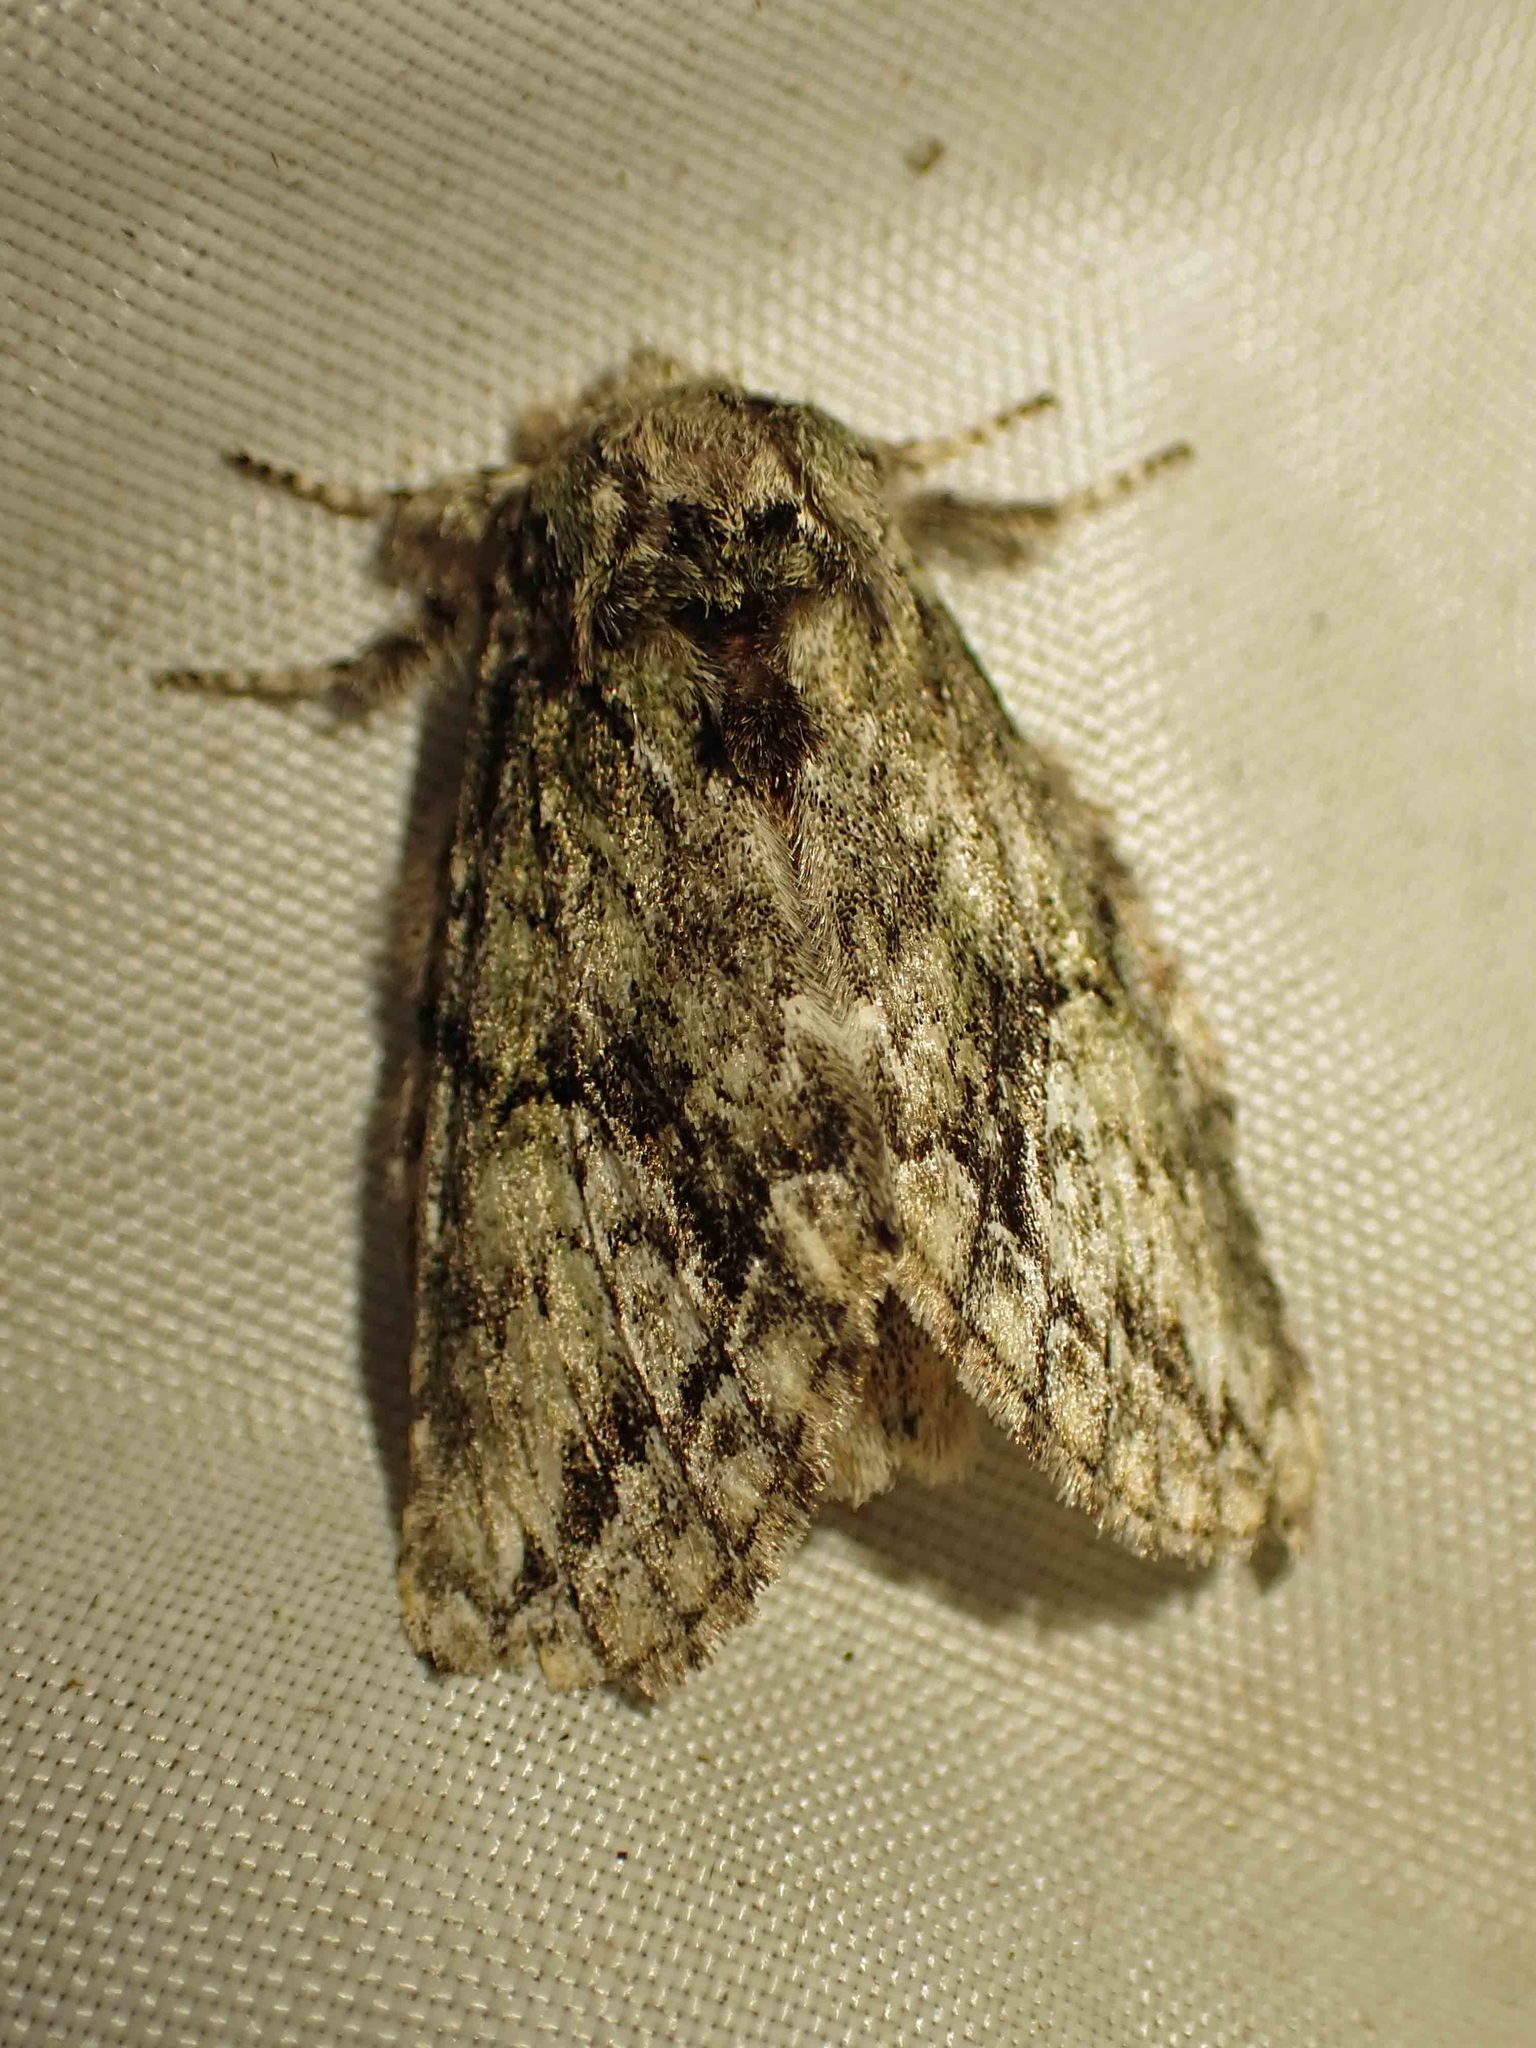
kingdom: Animalia
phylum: Arthropoda
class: Insecta
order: Lepidoptera
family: Notodontidae
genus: Heterocampa
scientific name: Heterocampa
